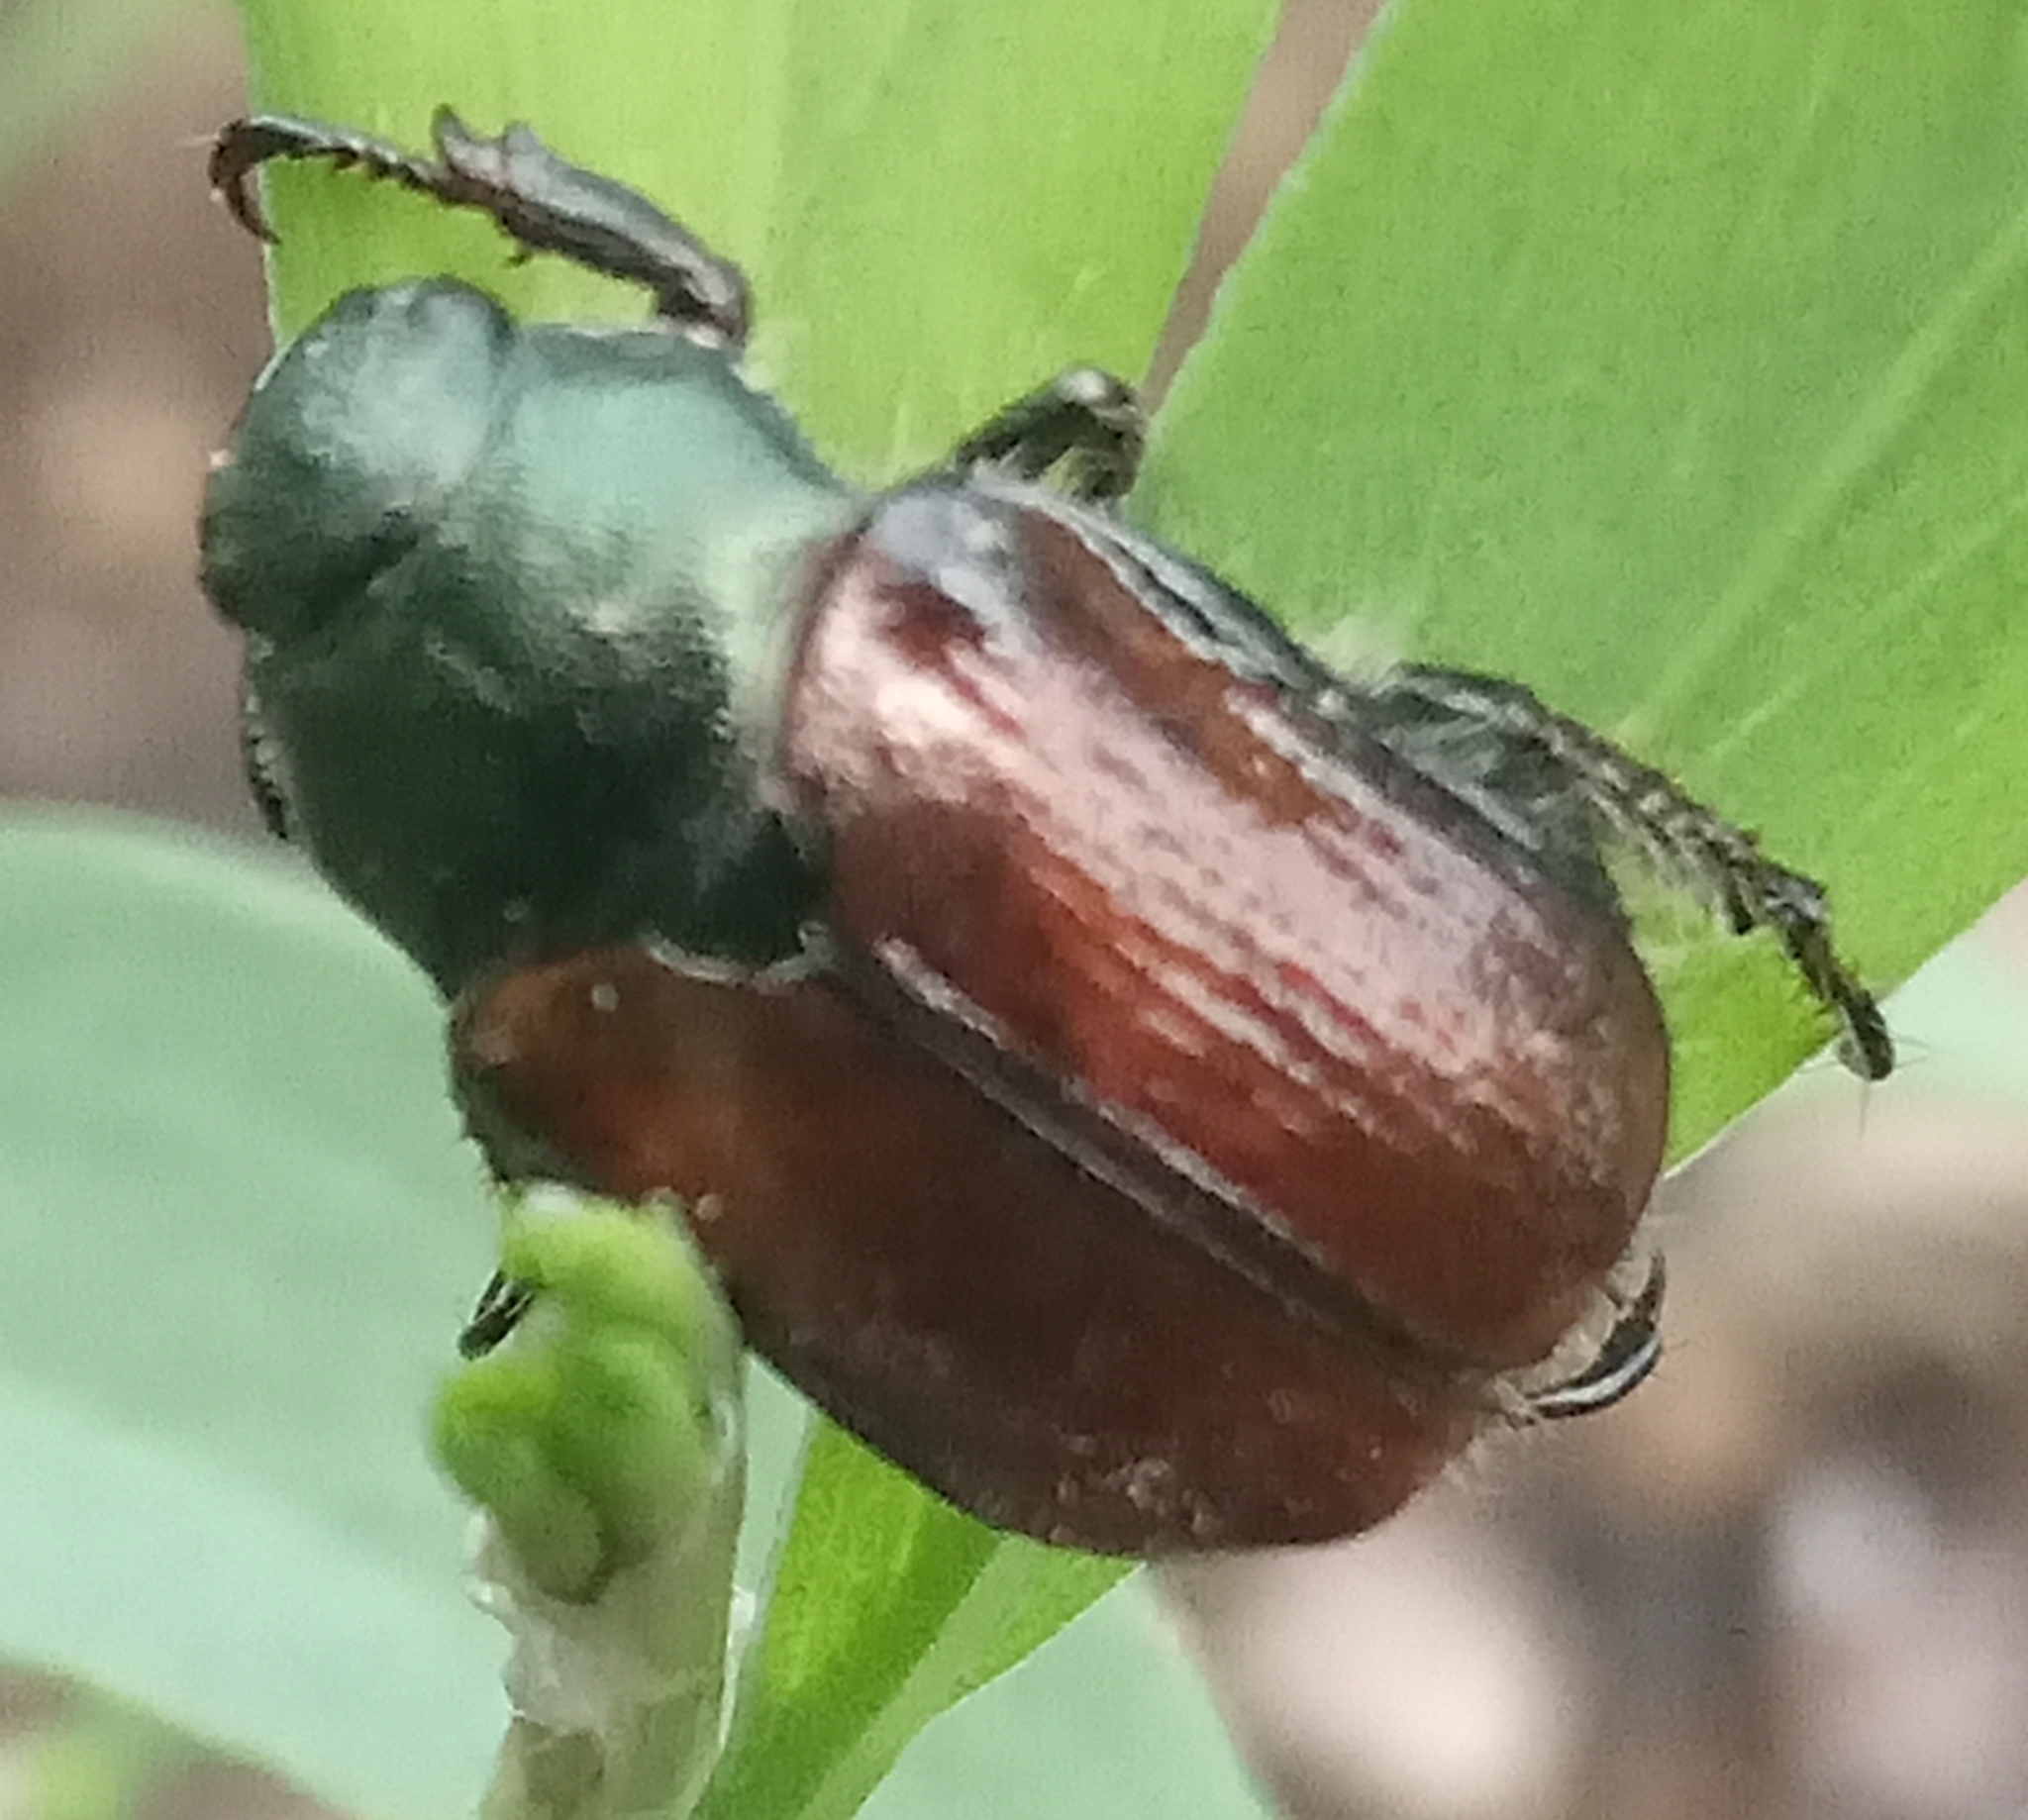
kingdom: Animalia
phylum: Arthropoda
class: Insecta
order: Coleoptera
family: Scarabaeidae
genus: Phyllopertha
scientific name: Phyllopertha horticola
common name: Garden chafer
